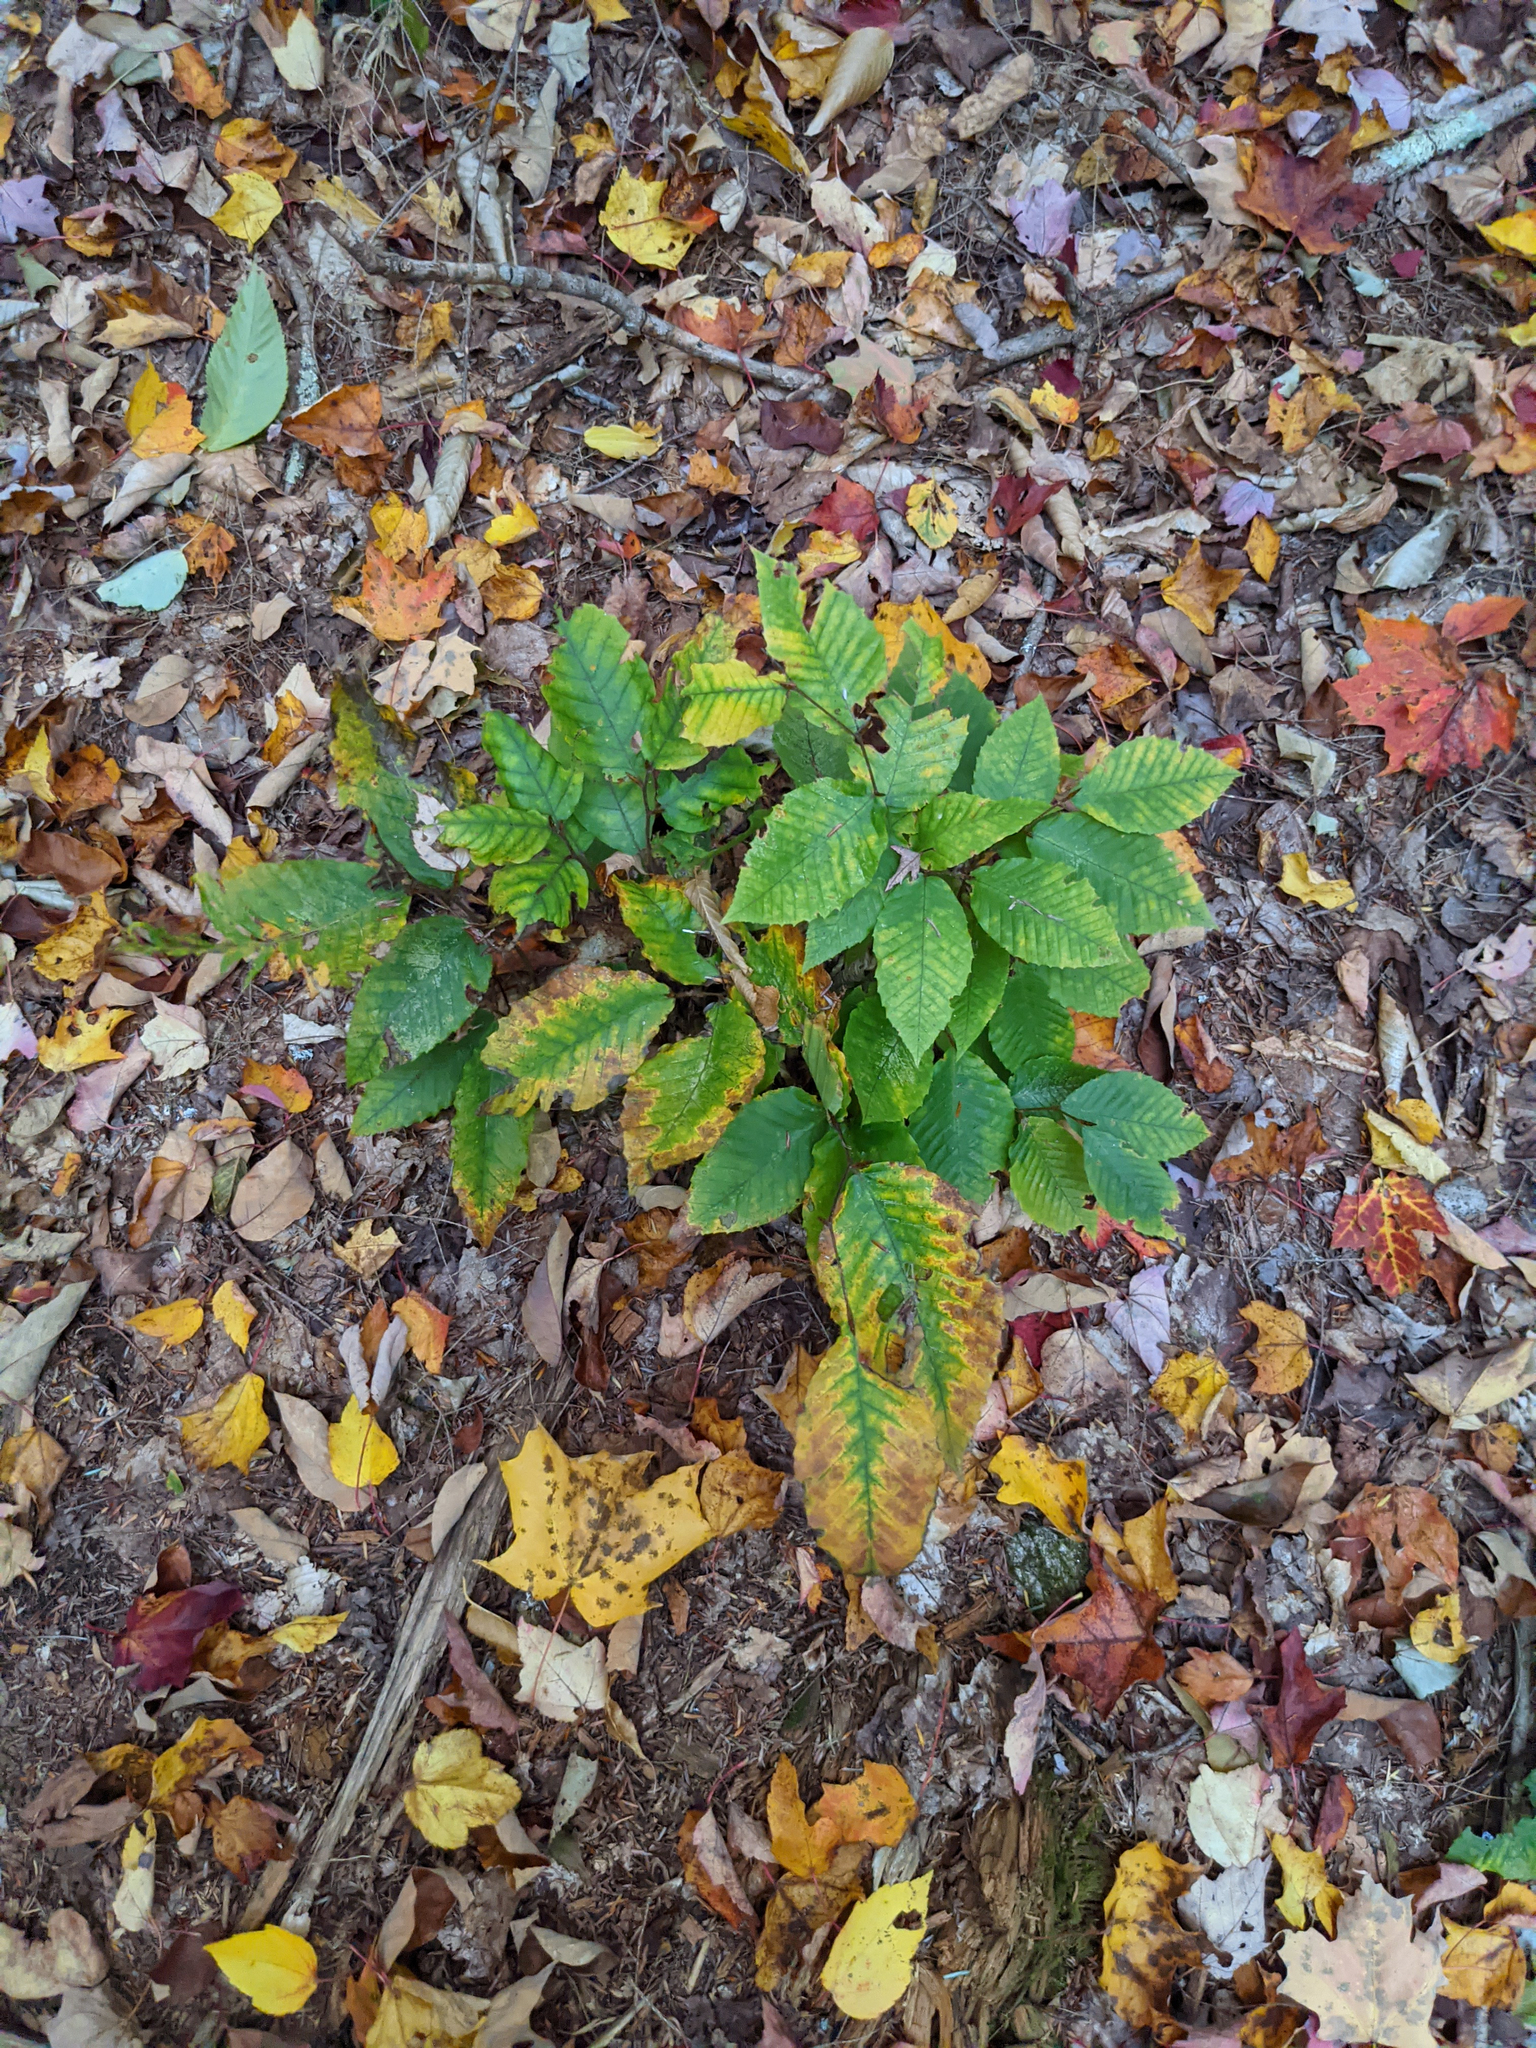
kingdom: Plantae
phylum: Tracheophyta
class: Magnoliopsida
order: Fagales
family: Fagaceae
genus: Fagus
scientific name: Fagus grandifolia
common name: American beech
